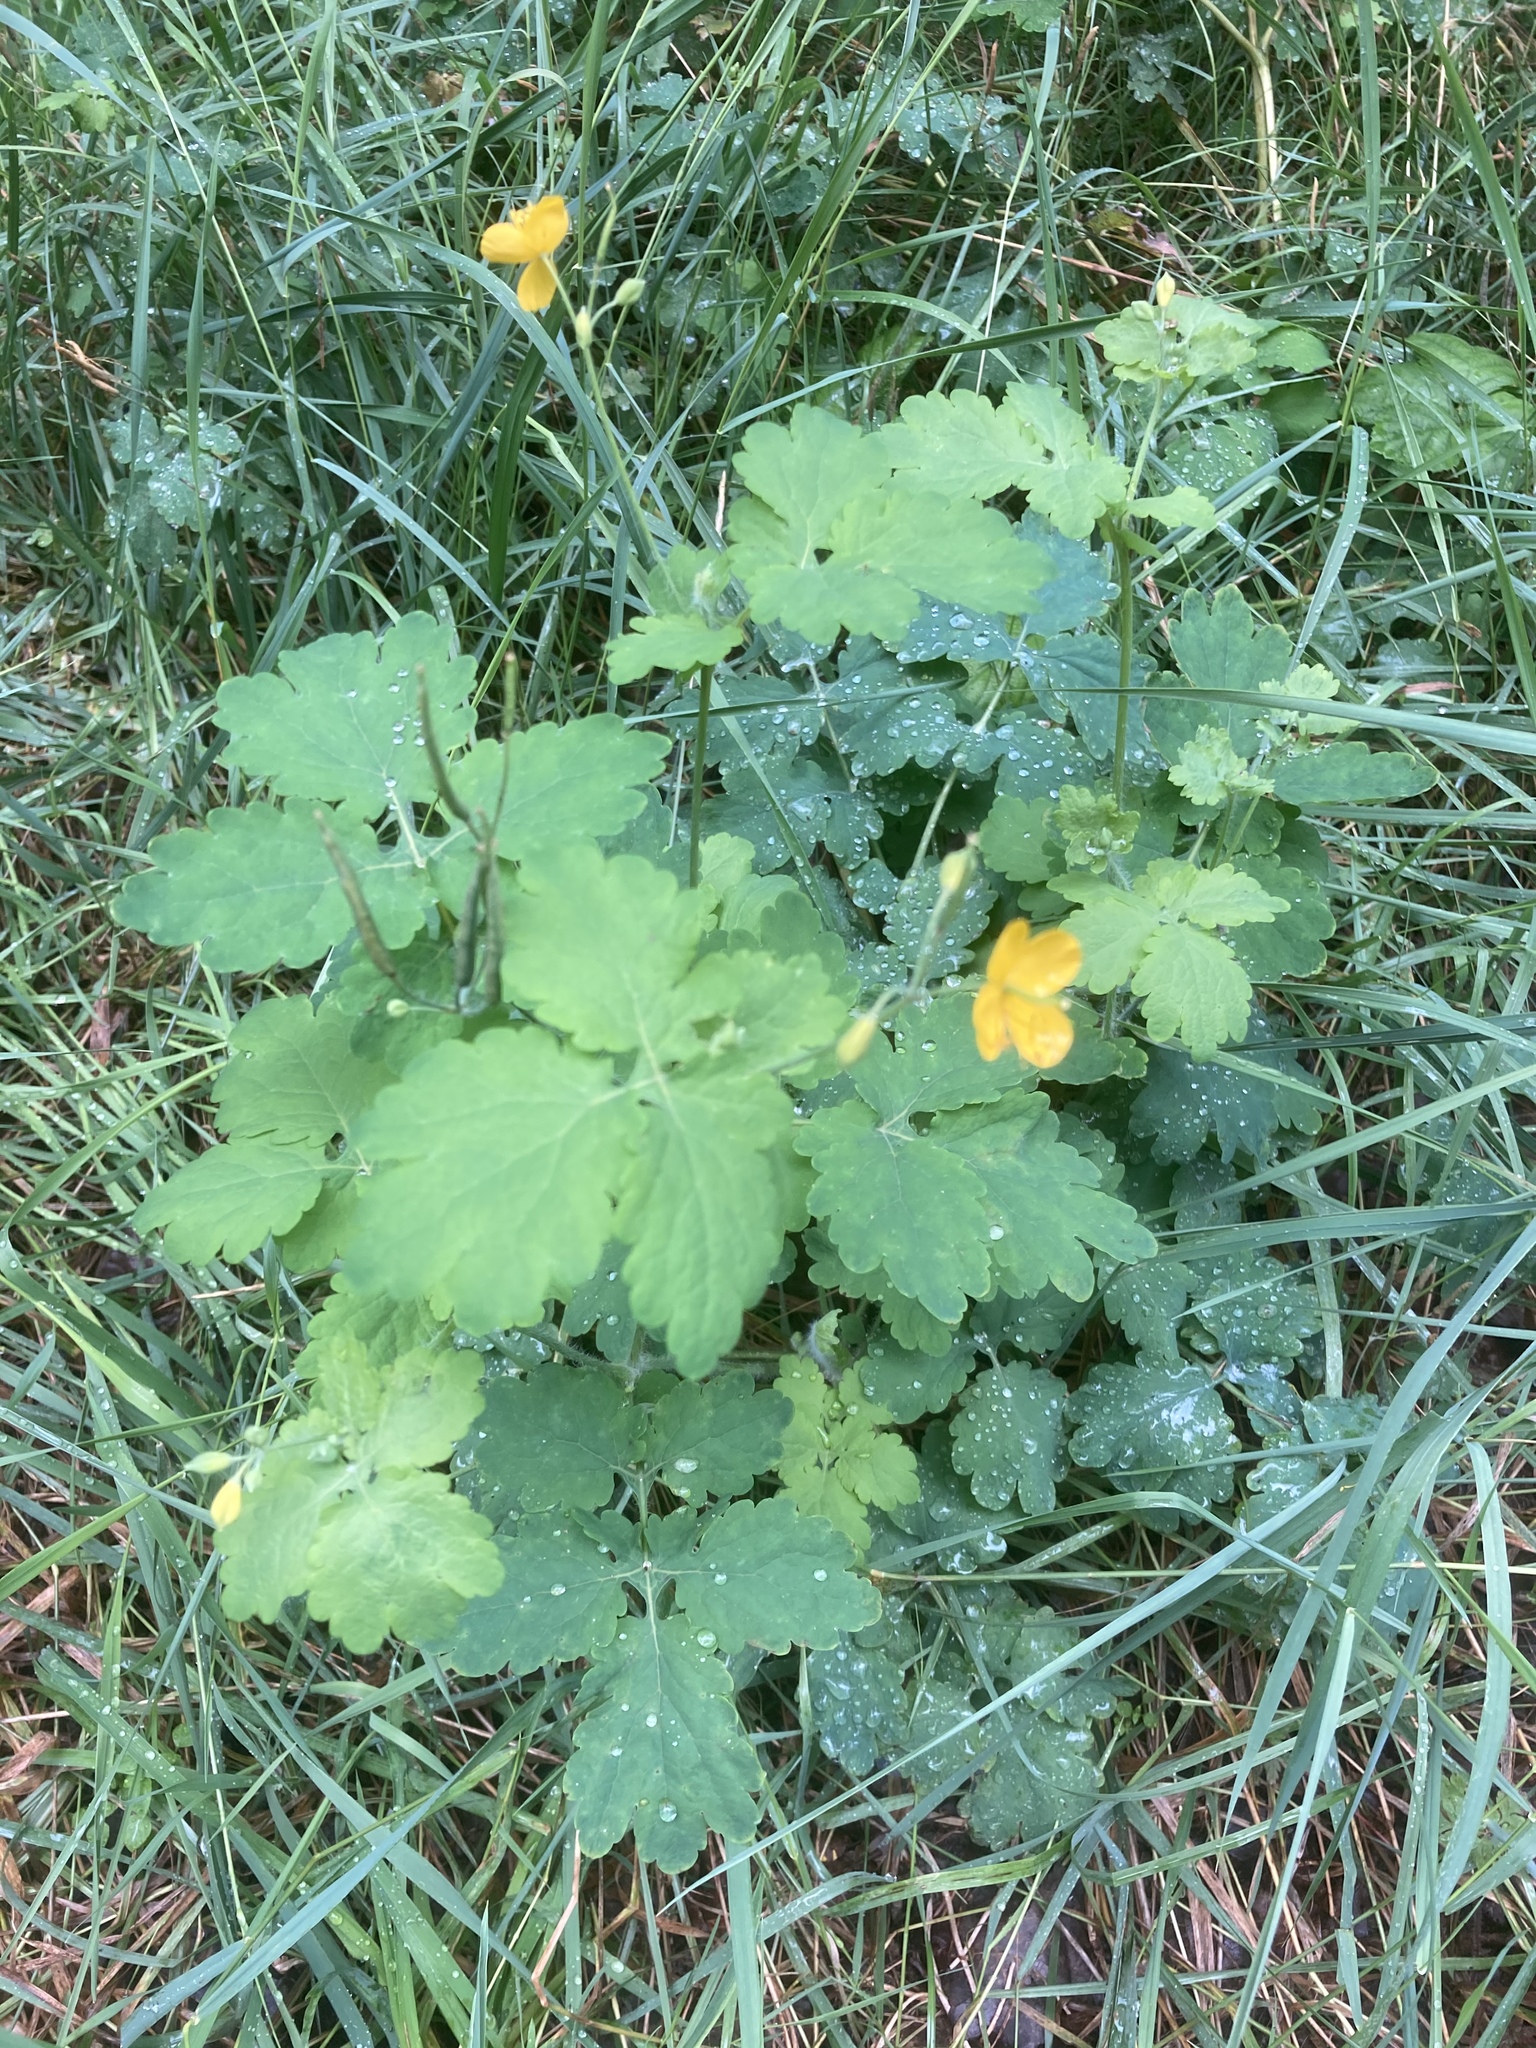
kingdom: Plantae
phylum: Tracheophyta
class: Magnoliopsida
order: Ranunculales
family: Papaveraceae
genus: Chelidonium
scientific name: Chelidonium majus
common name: Greater celandine
